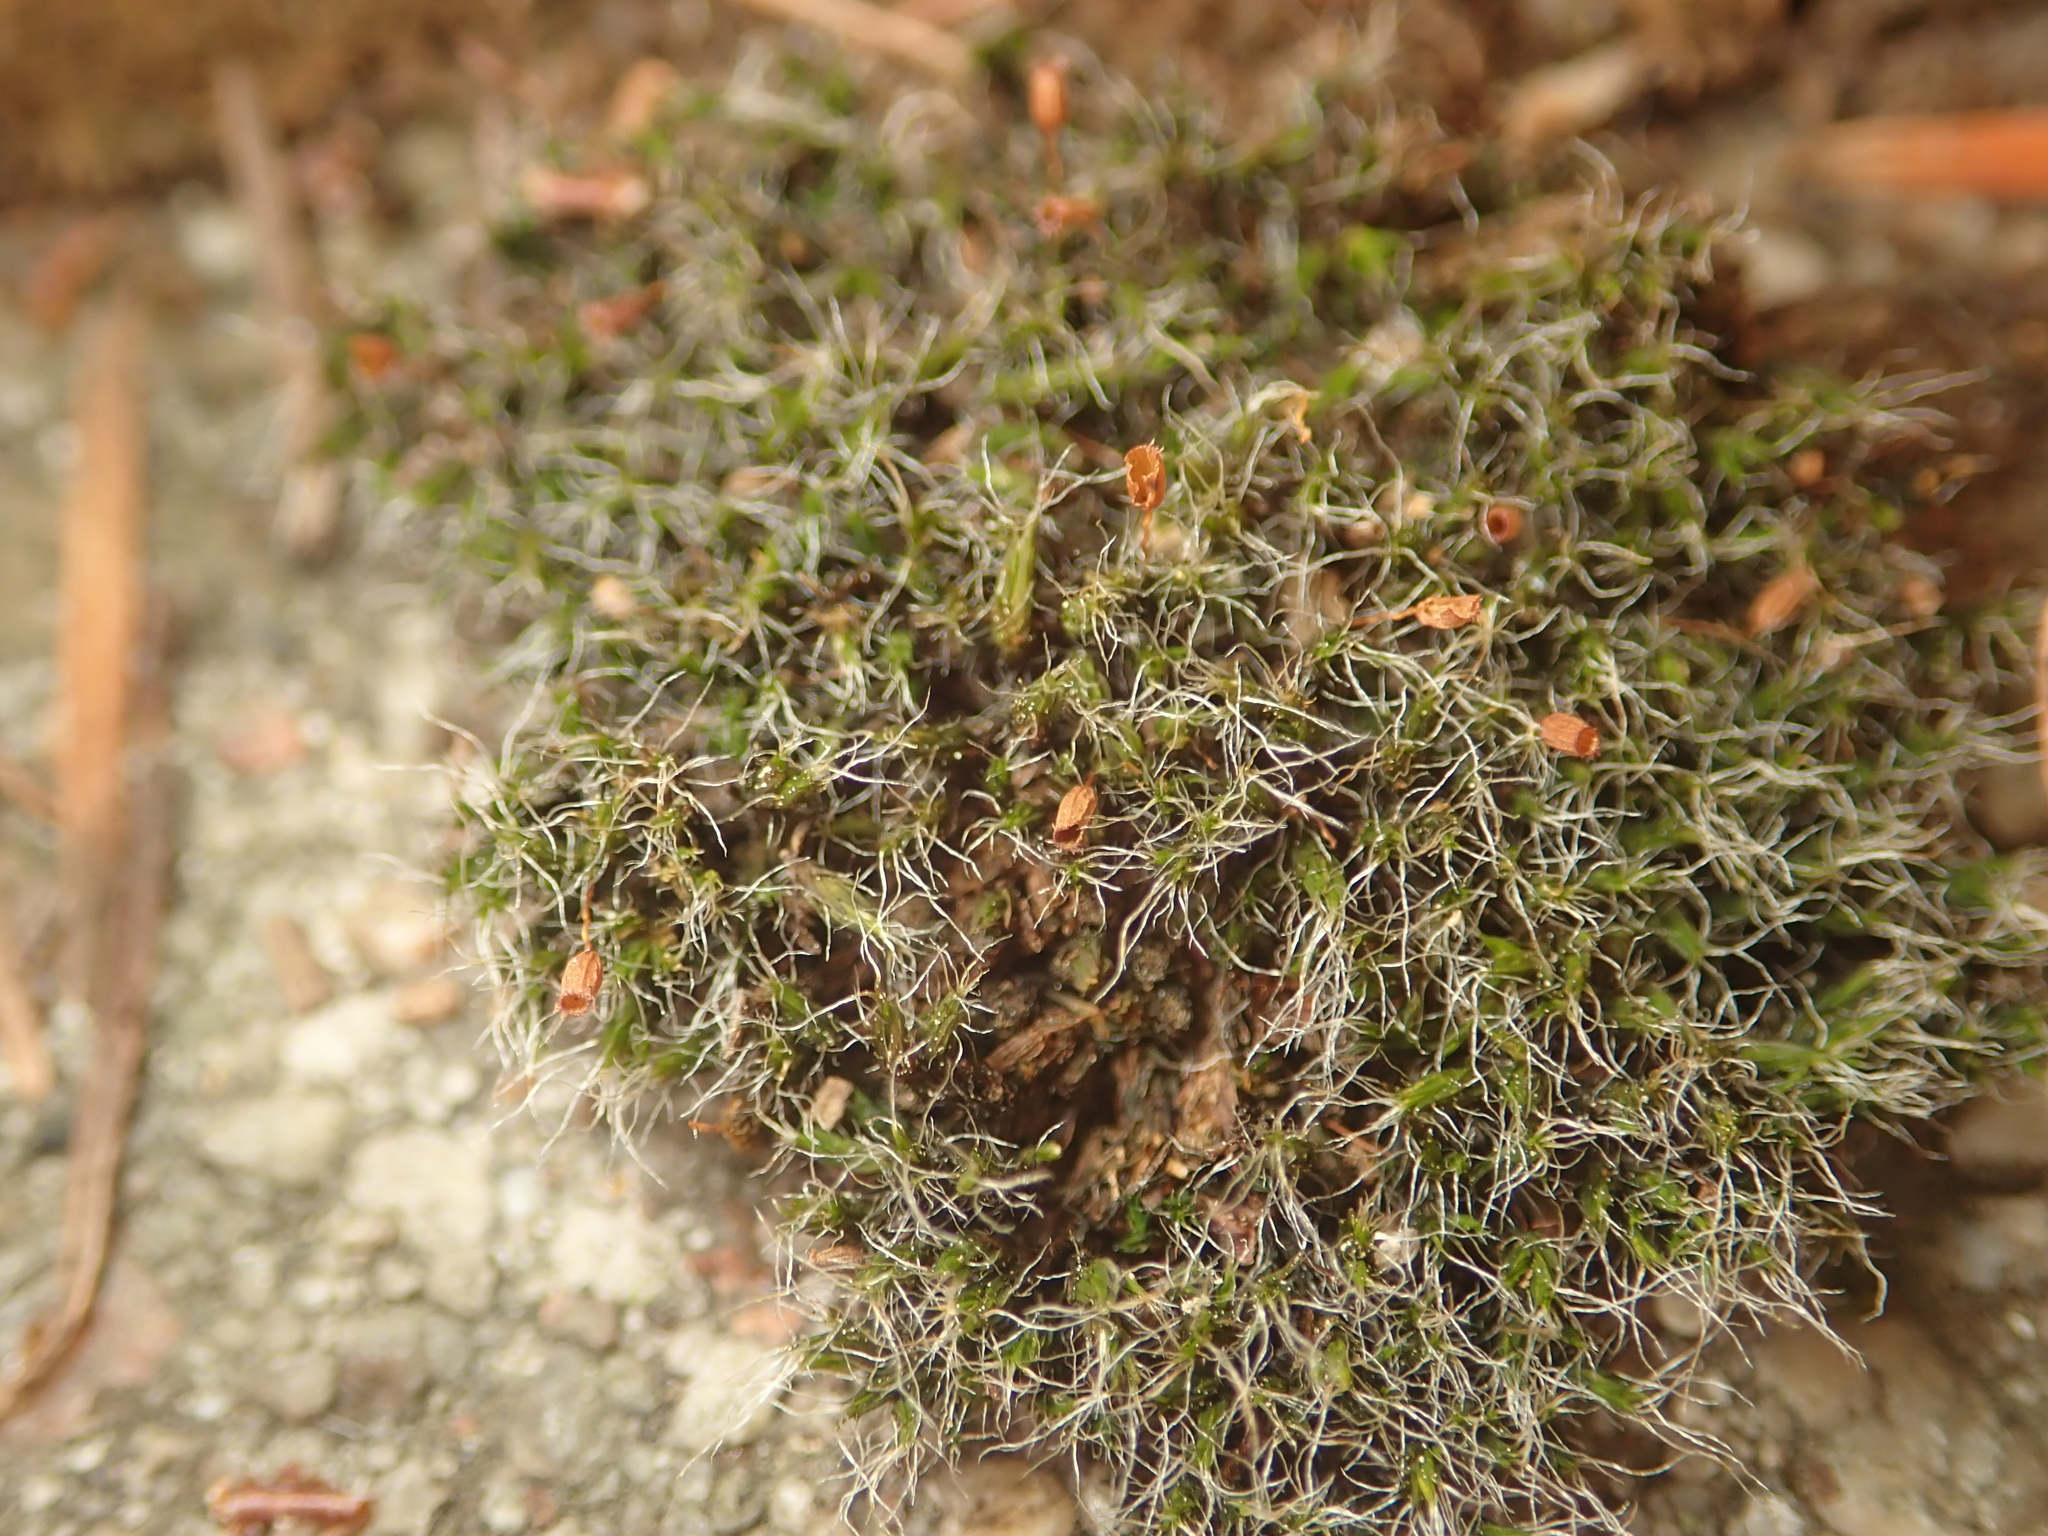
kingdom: Plantae
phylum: Bryophyta
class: Bryopsida
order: Grimmiales
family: Grimmiaceae
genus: Grimmia
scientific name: Grimmia pulvinata
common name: Grey-cushioned grimmia
